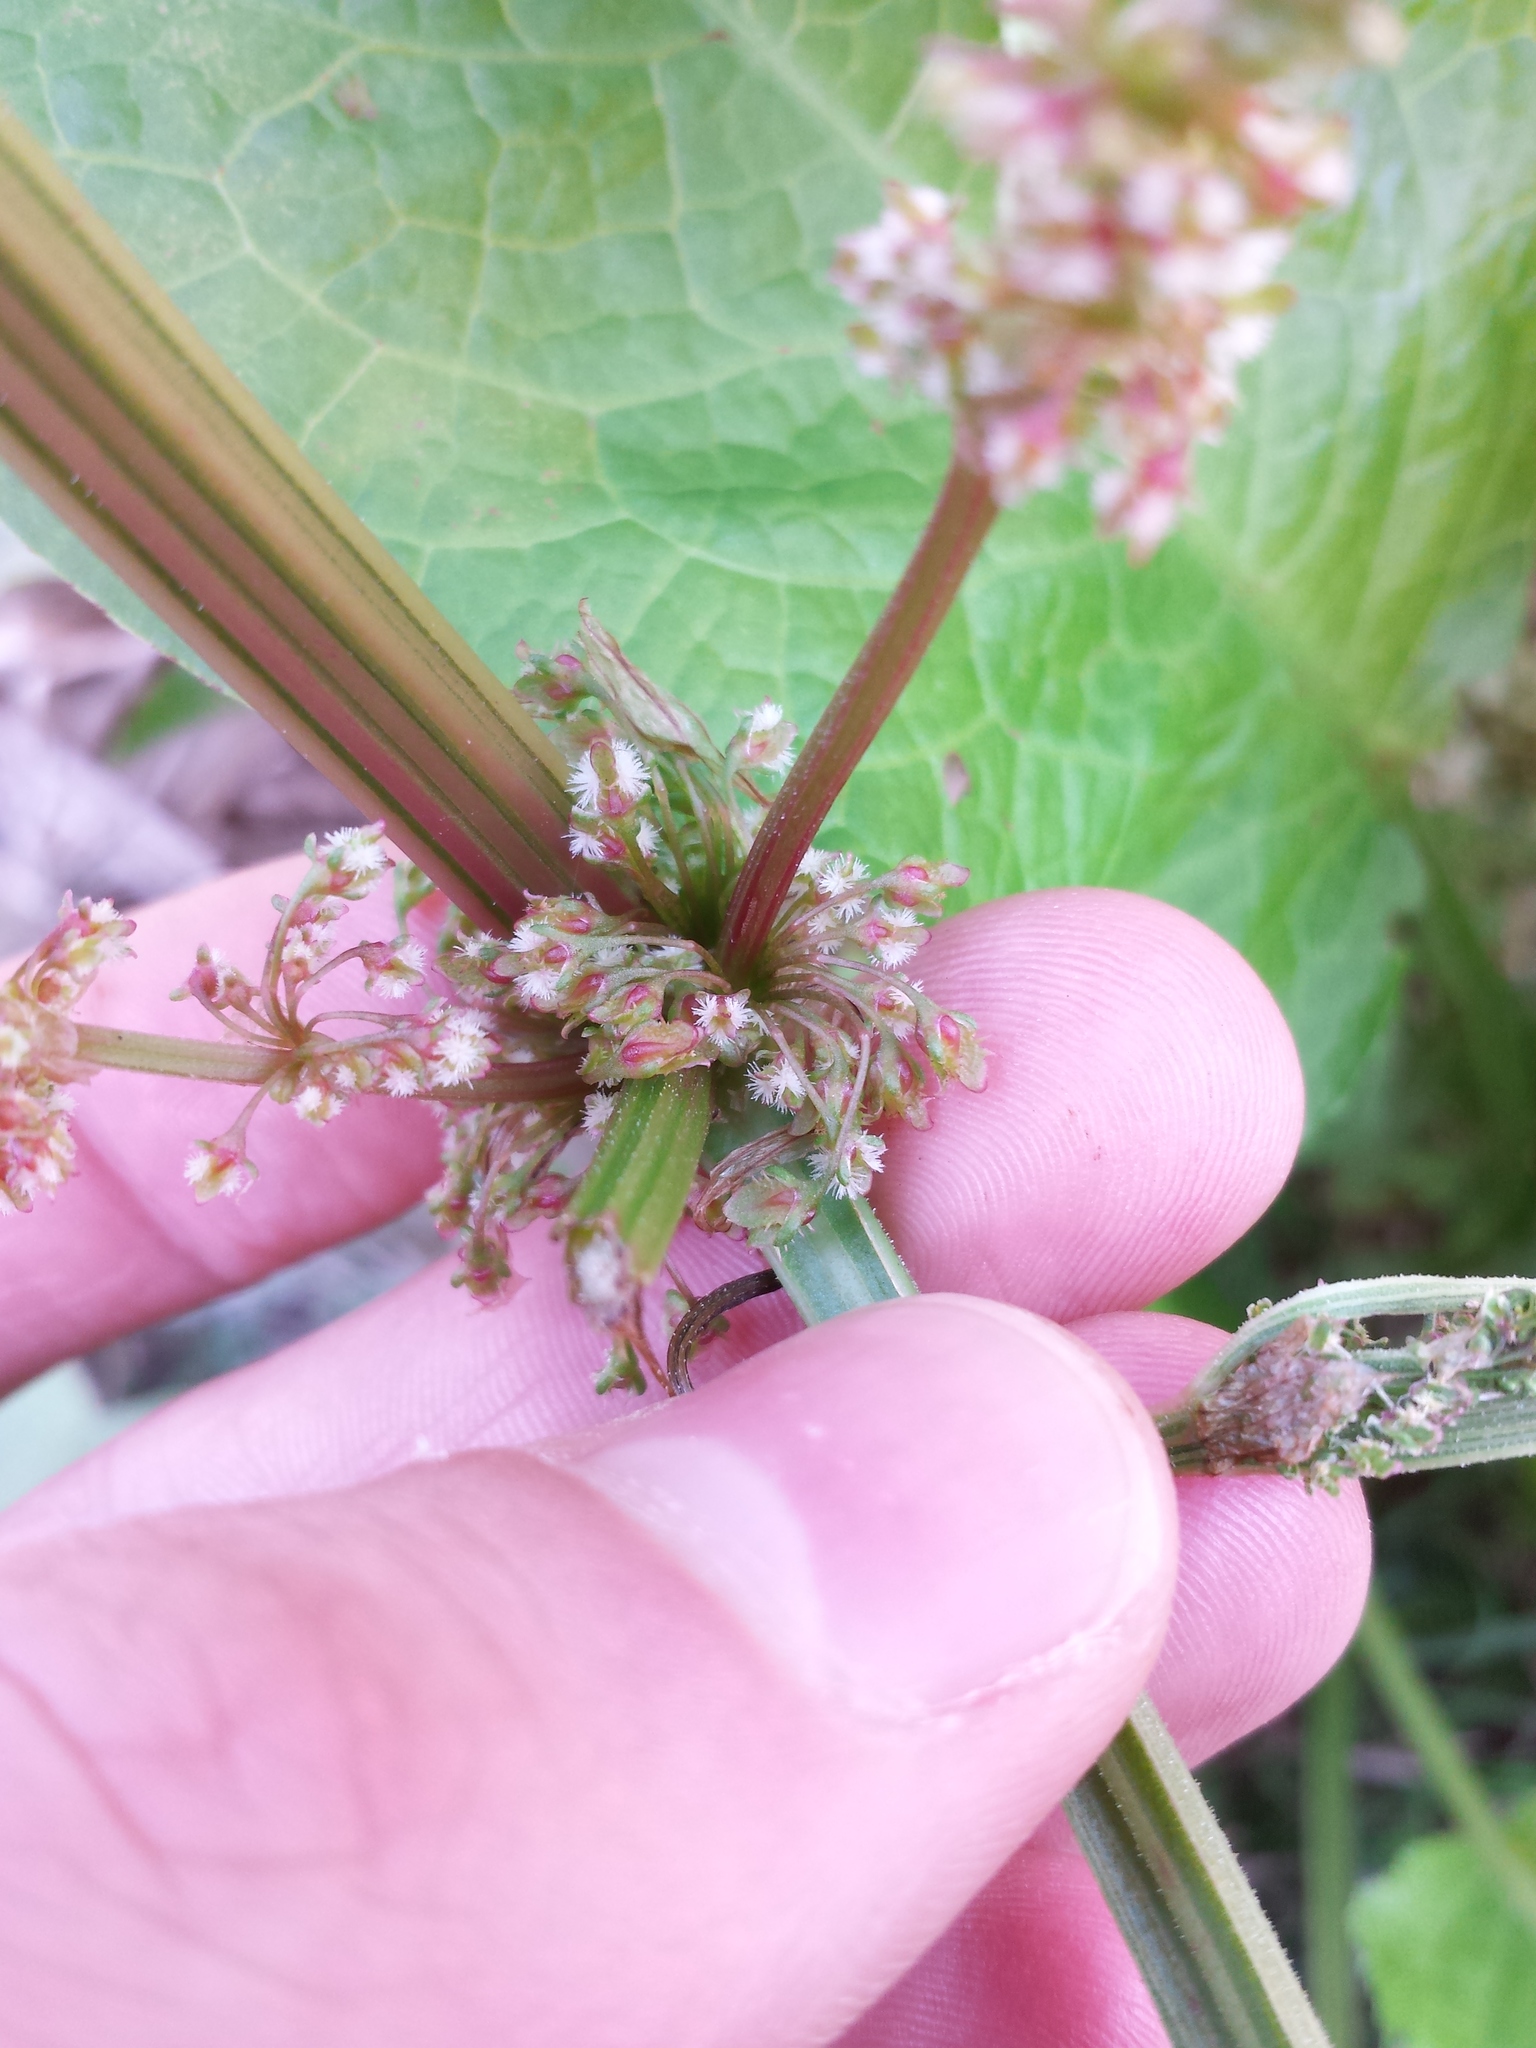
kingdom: Plantae
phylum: Tracheophyta
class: Magnoliopsida
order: Caryophyllales
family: Polygonaceae
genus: Rumex
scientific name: Rumex obtusifolius
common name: Bitter dock
